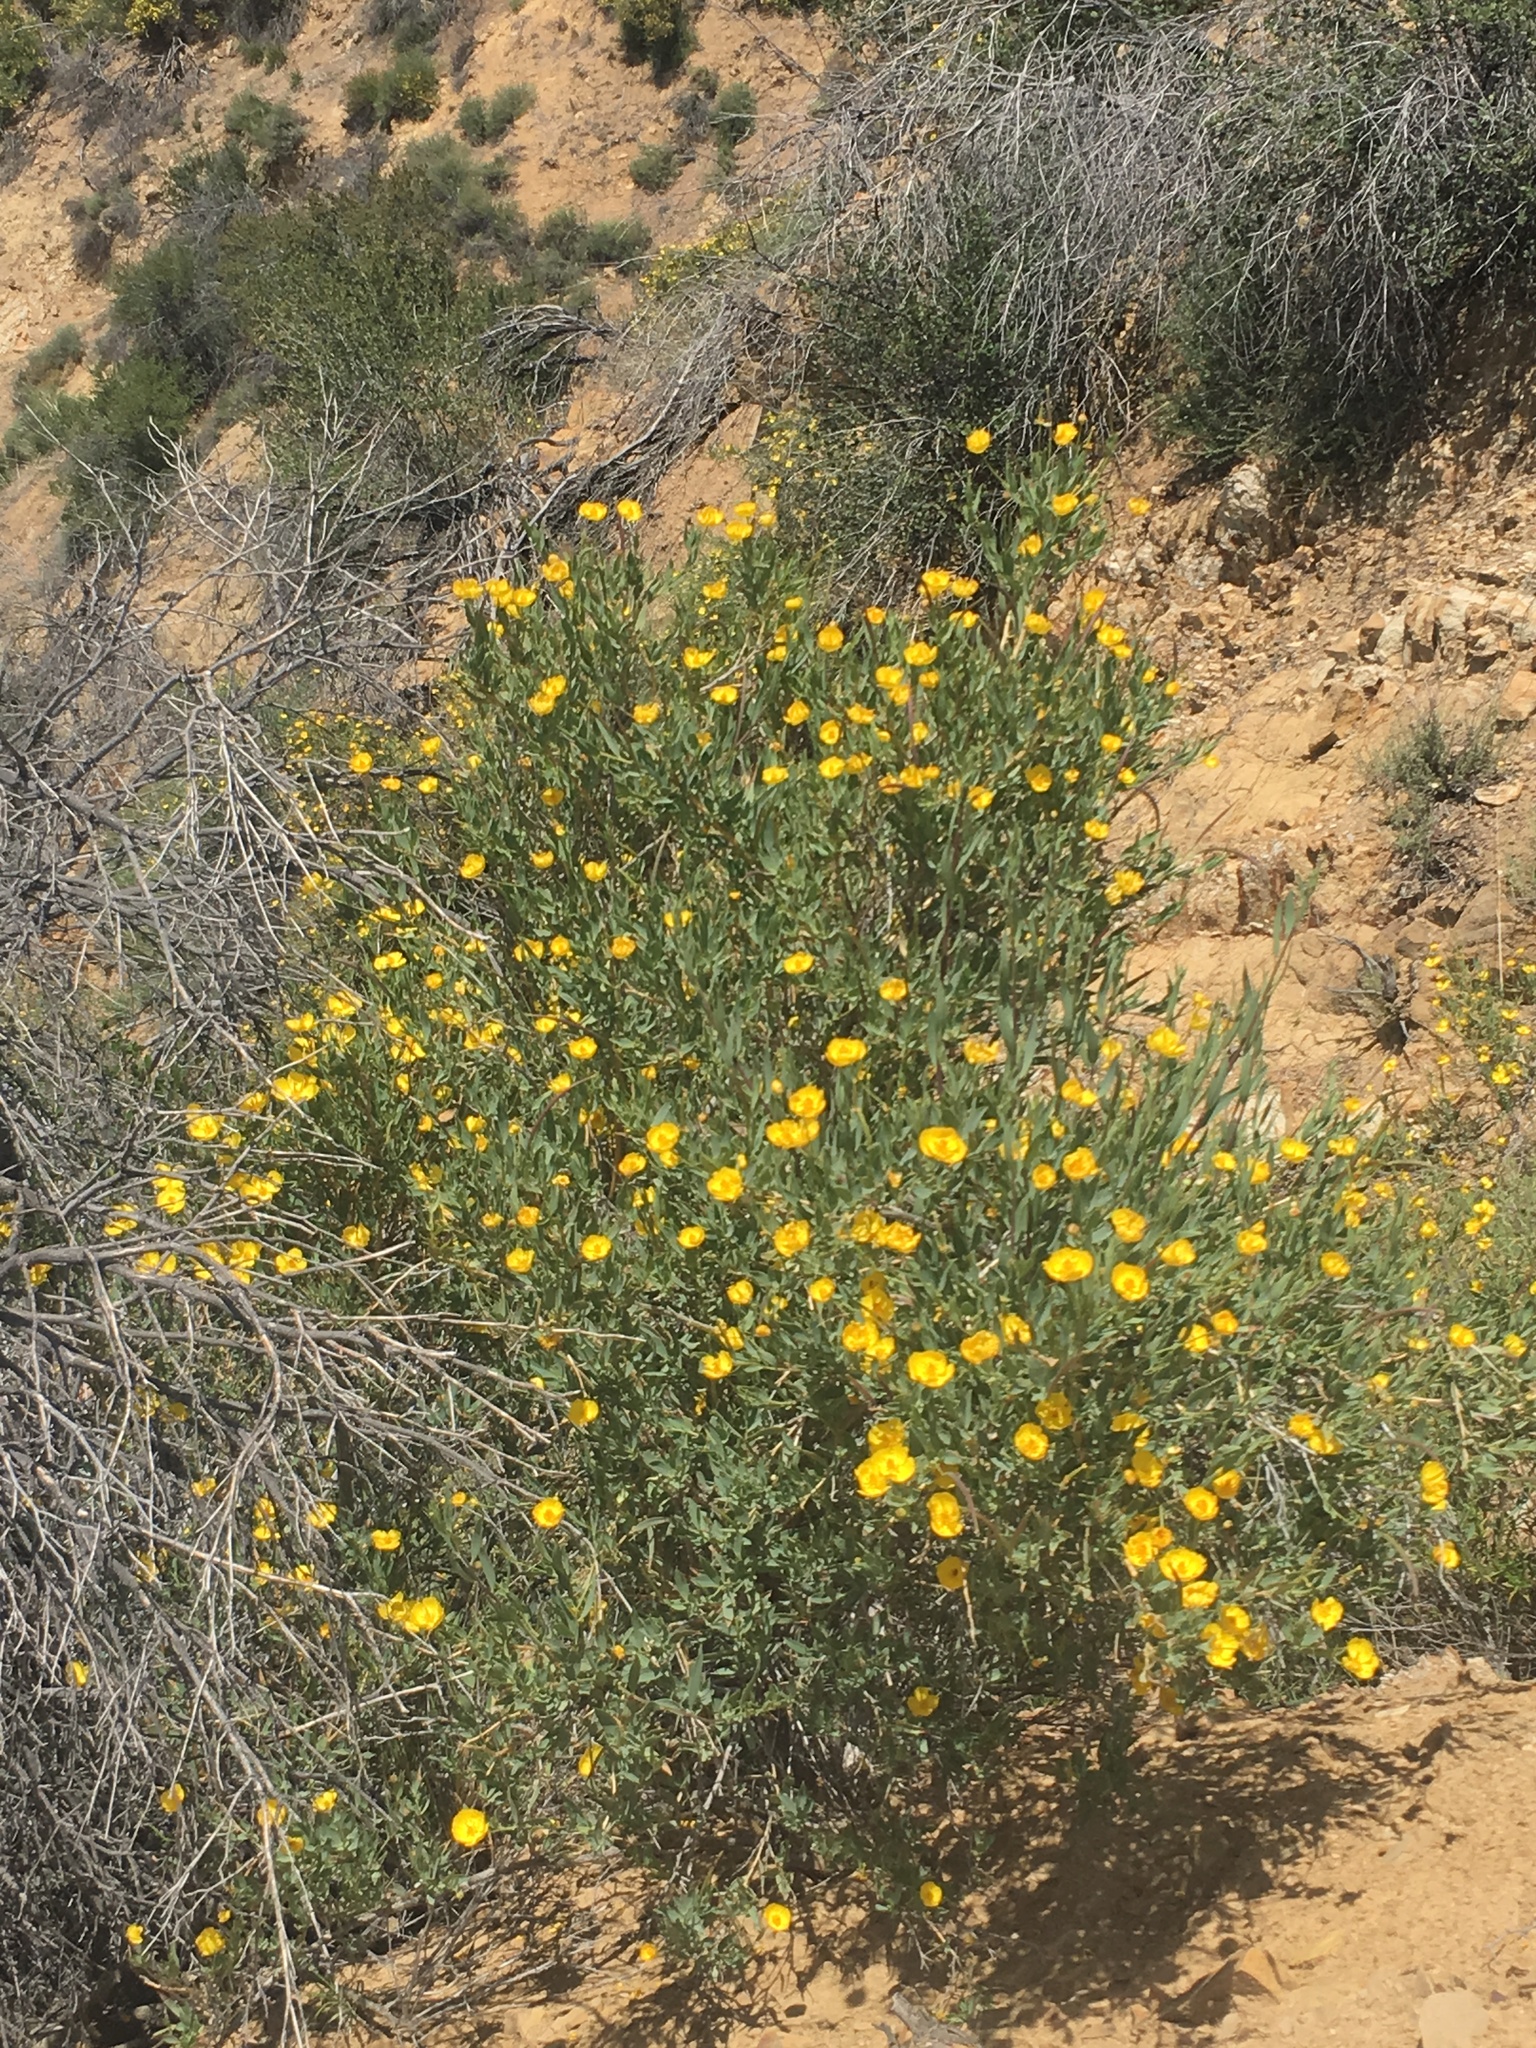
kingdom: Plantae
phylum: Tracheophyta
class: Magnoliopsida
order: Ranunculales
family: Papaveraceae
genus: Dendromecon
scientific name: Dendromecon rigida
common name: Tree poppy
